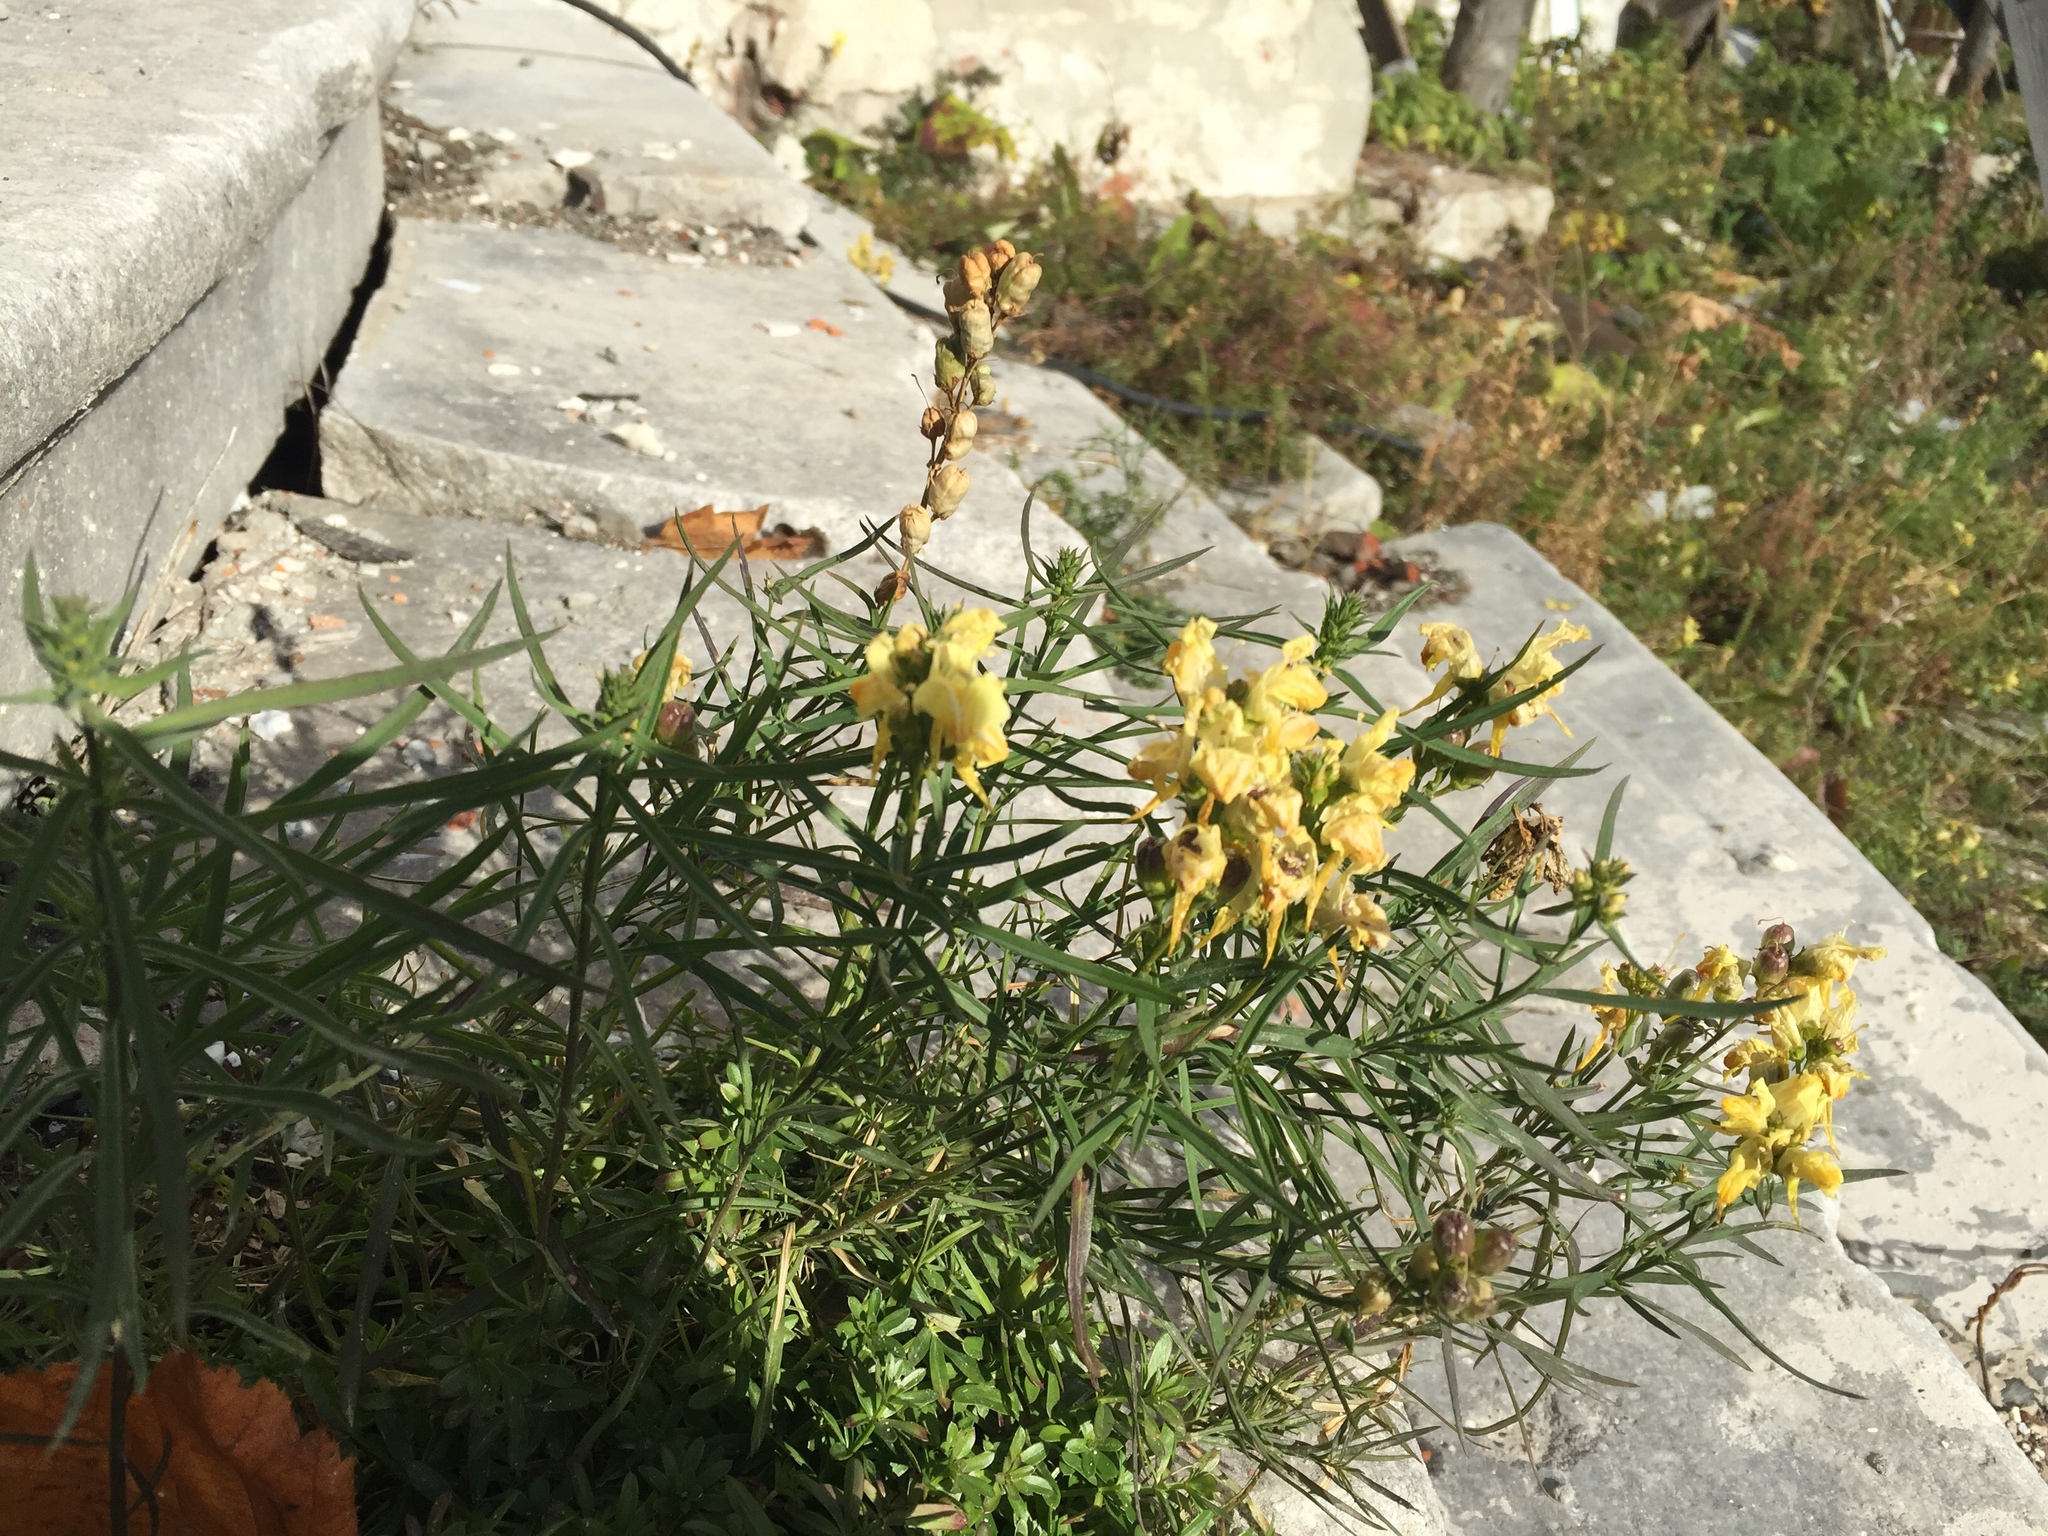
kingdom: Plantae
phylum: Tracheophyta
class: Magnoliopsida
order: Lamiales
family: Plantaginaceae
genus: Linaria
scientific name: Linaria vulgaris
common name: Butter and eggs
